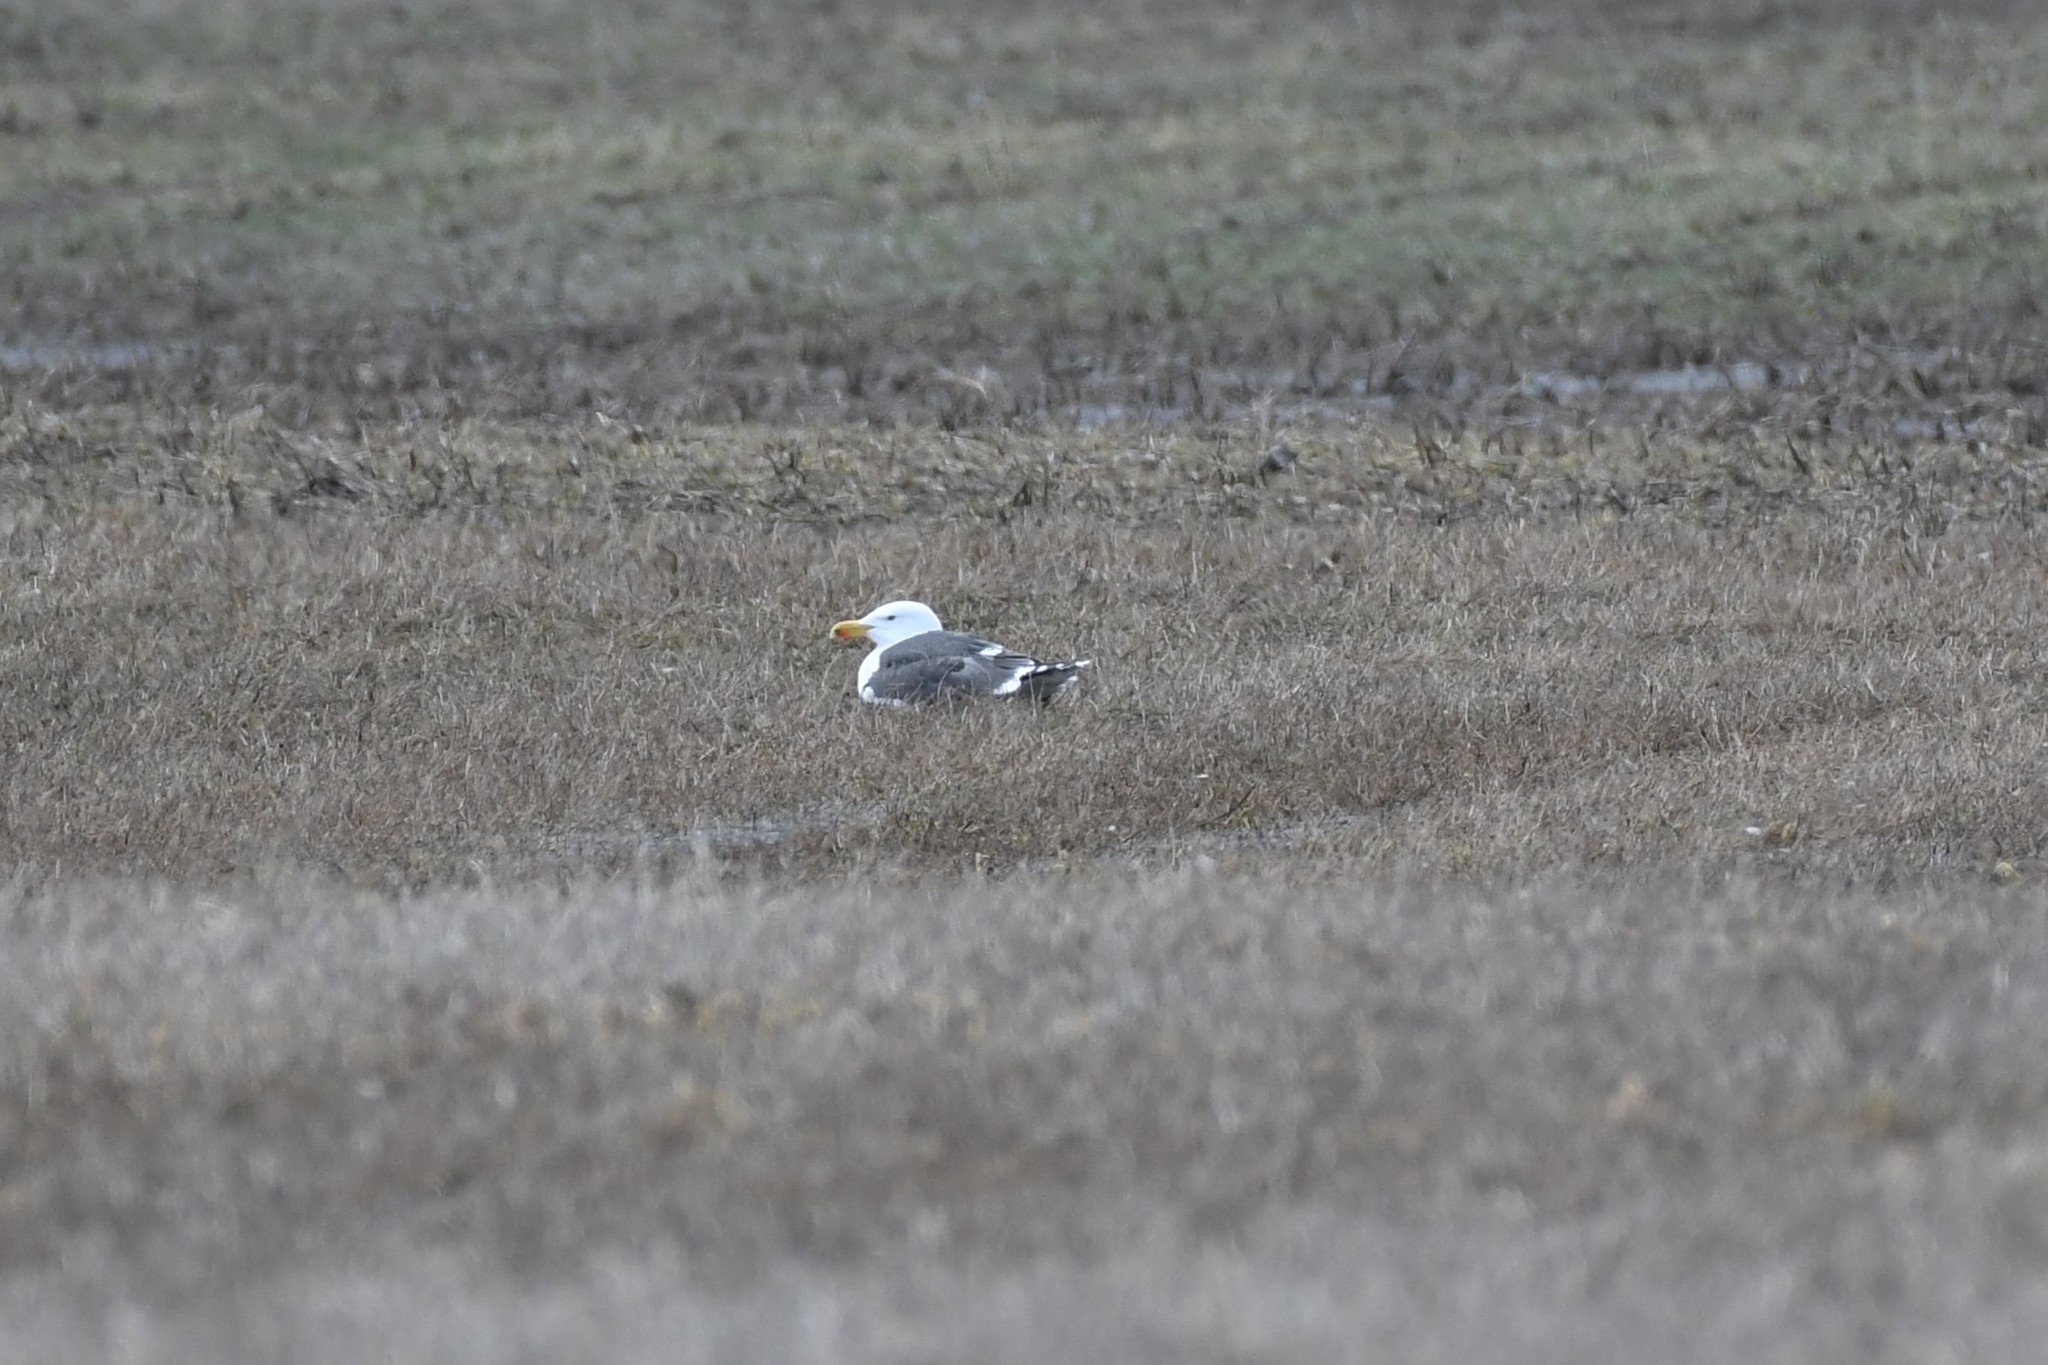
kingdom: Animalia
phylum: Chordata
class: Aves
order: Charadriiformes
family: Laridae
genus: Larus
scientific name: Larus marinus
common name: Great black-backed gull
